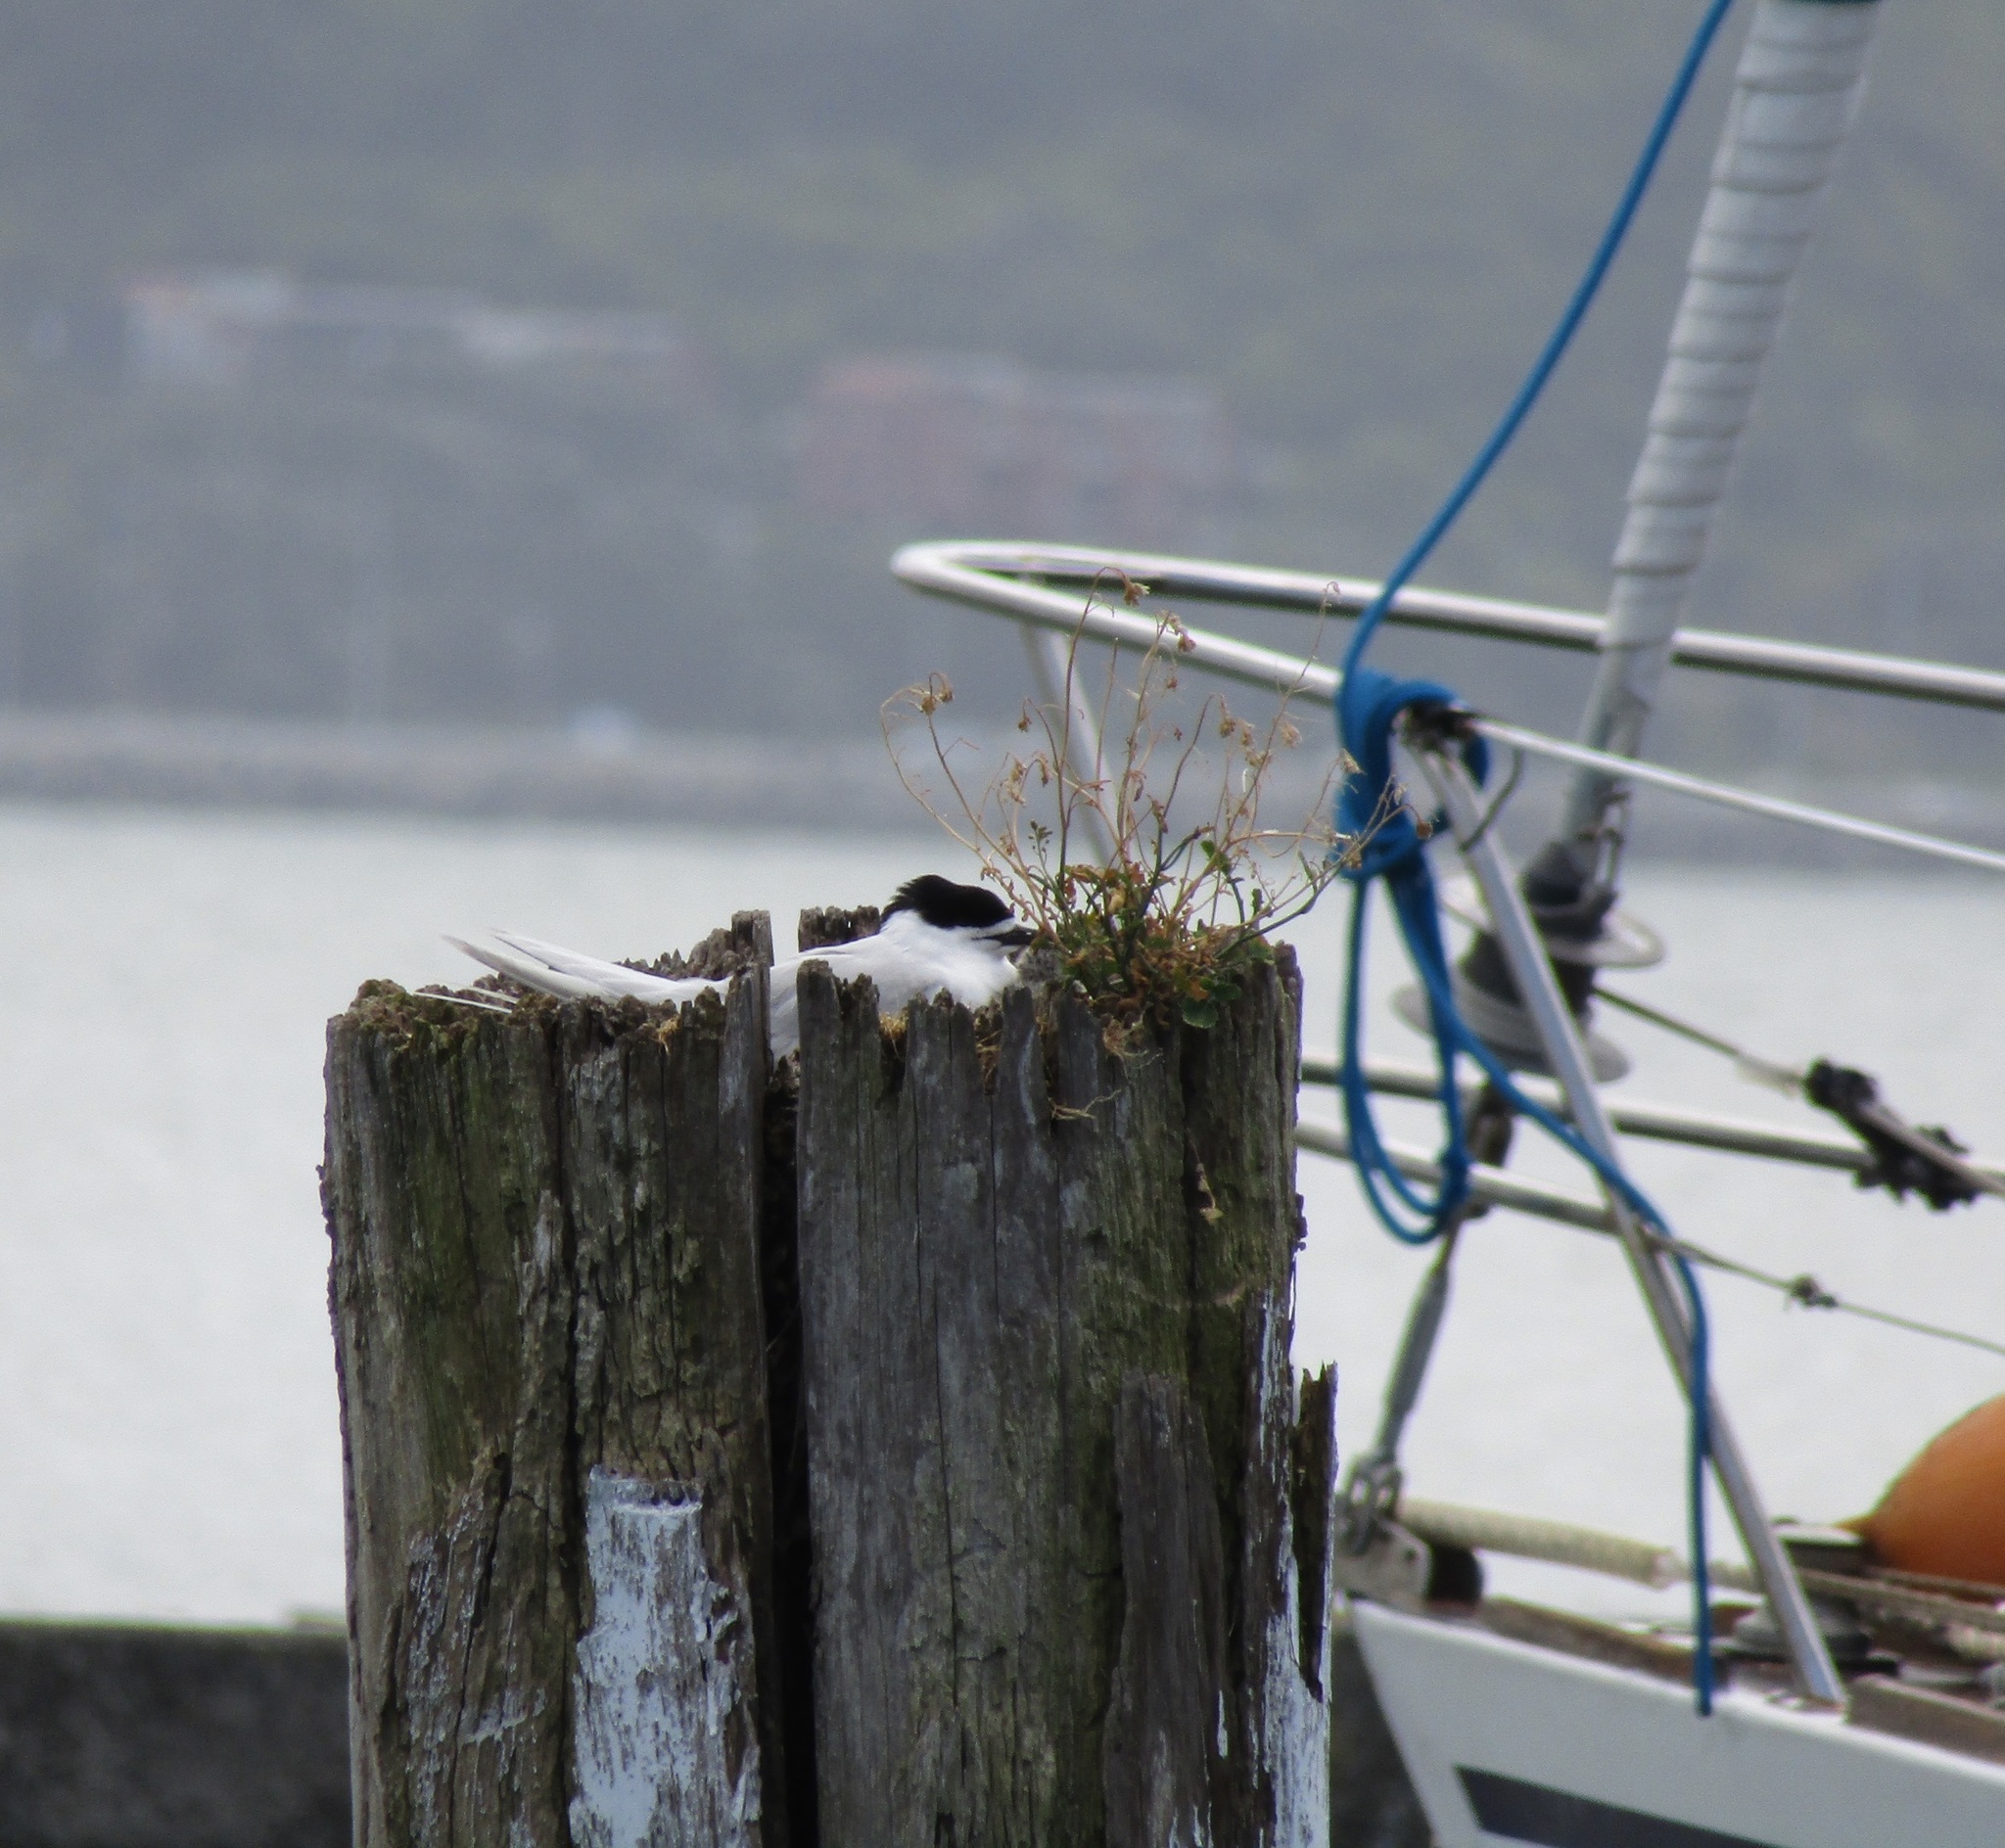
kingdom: Animalia
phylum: Chordata
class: Aves
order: Charadriiformes
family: Laridae
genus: Sterna
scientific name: Sterna striata
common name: White-fronted tern
